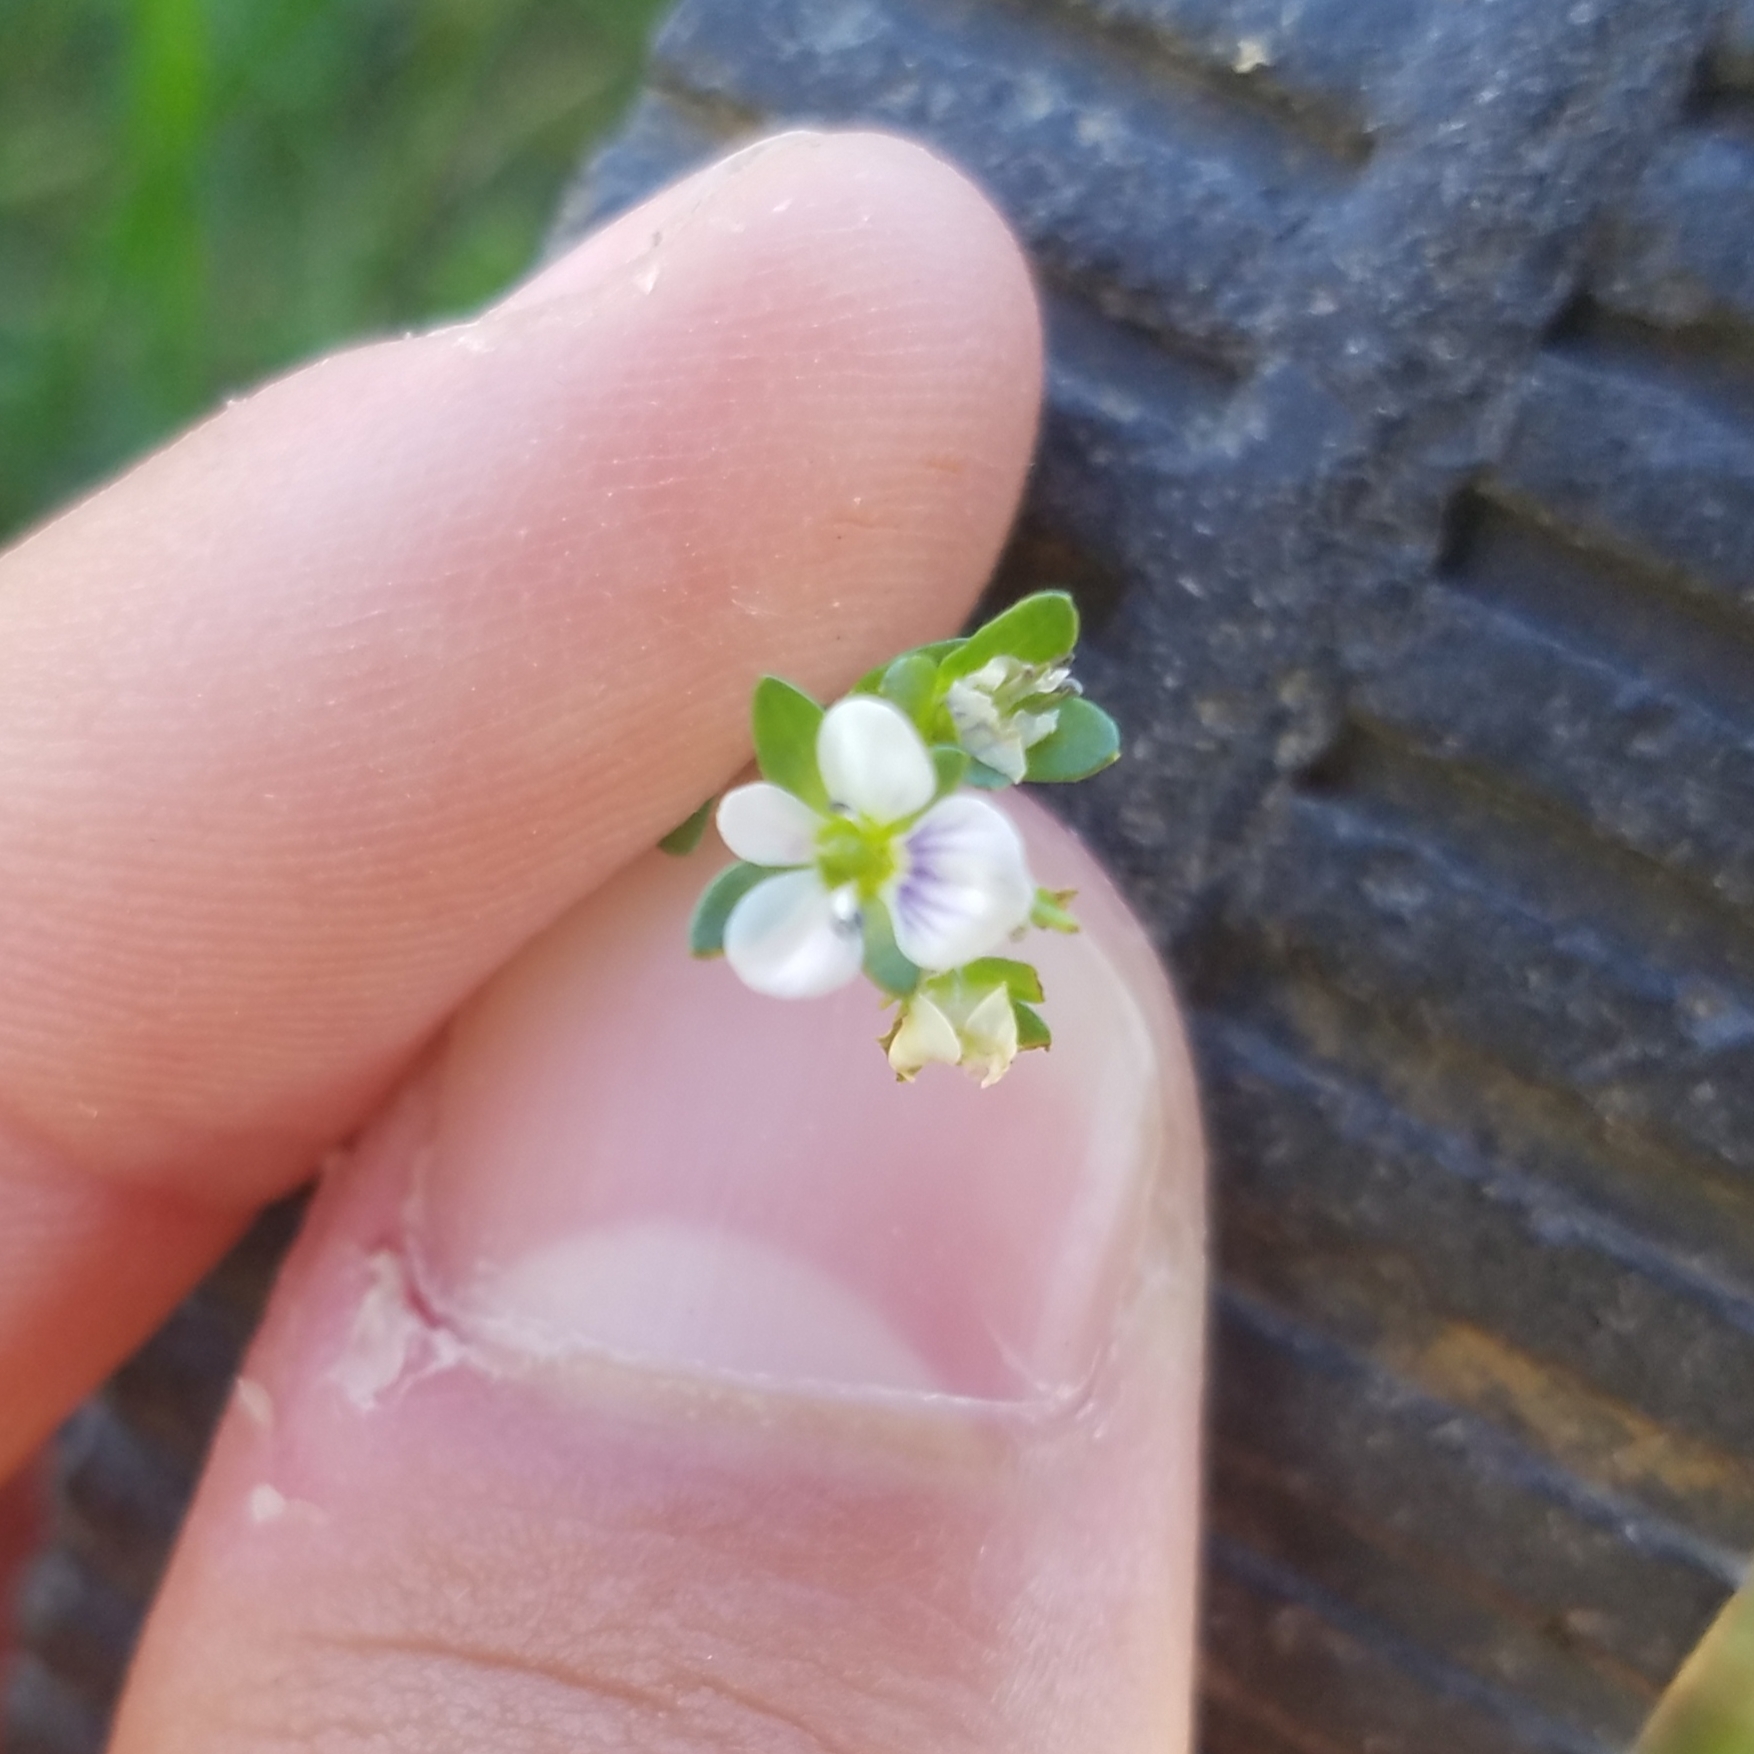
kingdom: Plantae
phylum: Tracheophyta
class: Magnoliopsida
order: Lamiales
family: Plantaginaceae
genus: Veronica
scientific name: Veronica serpyllifolia
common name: Thyme-leaved speedwell
